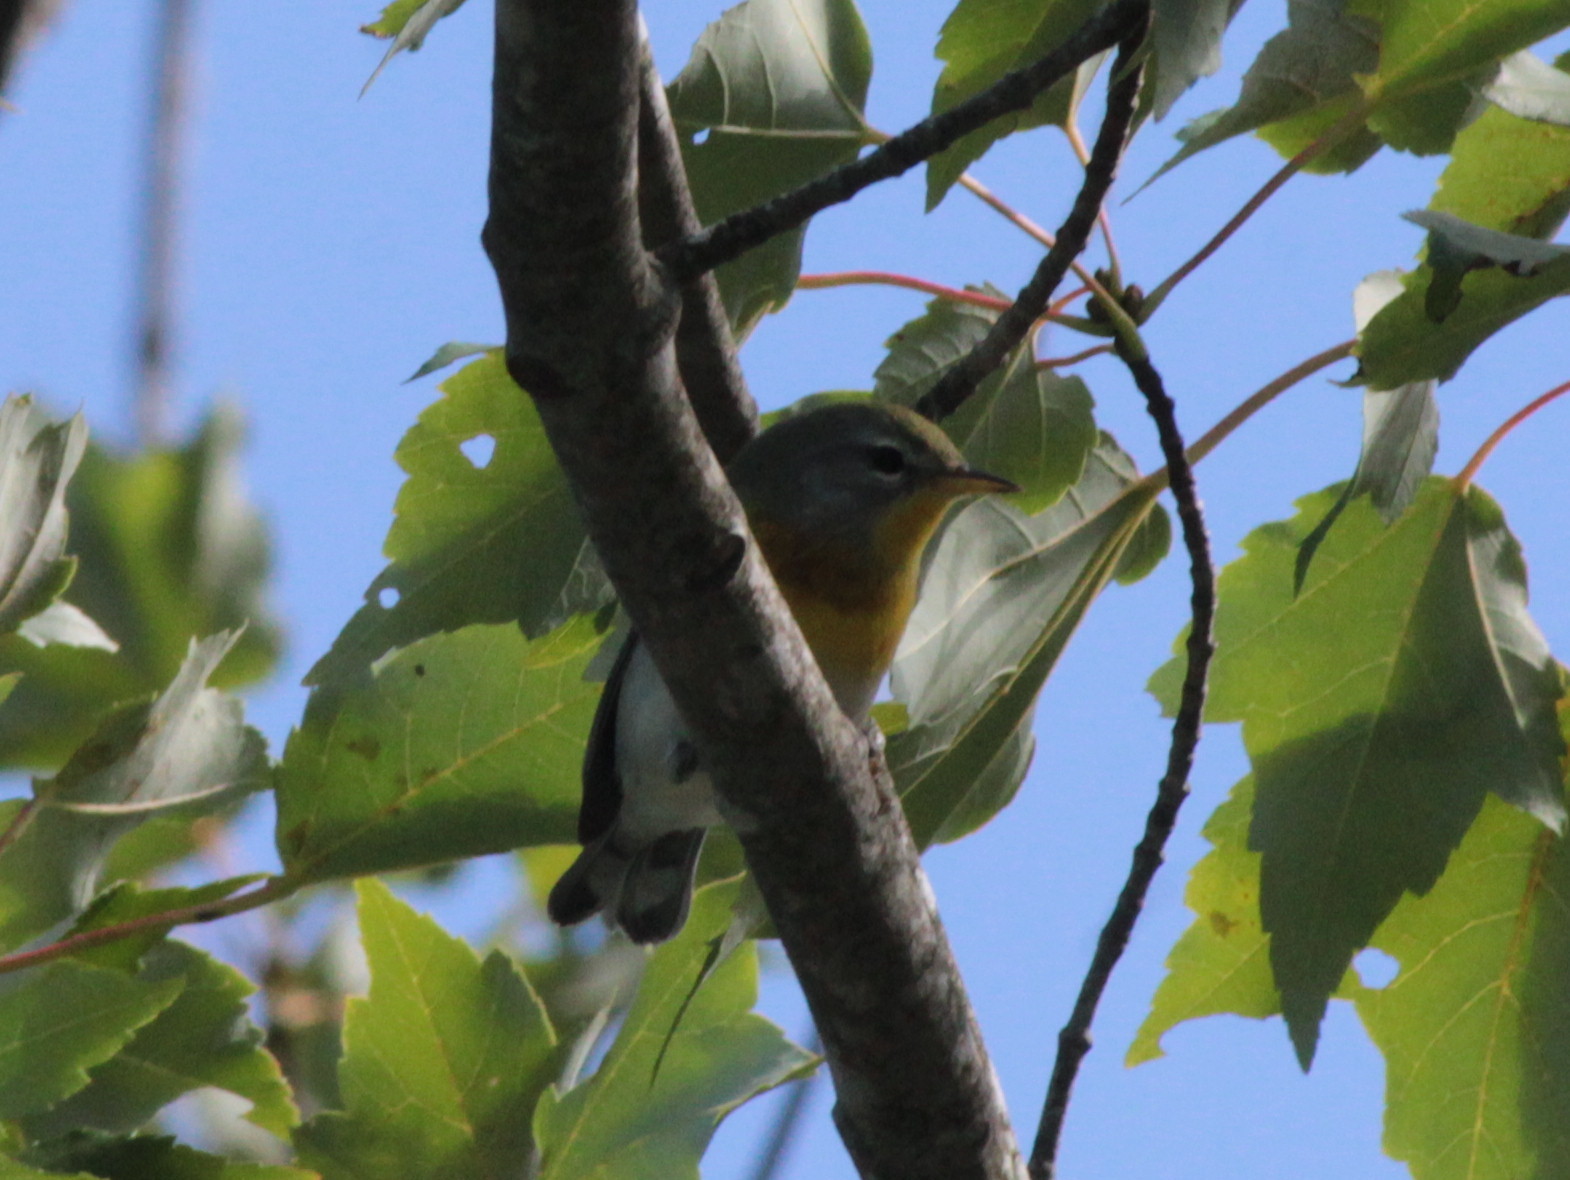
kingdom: Animalia
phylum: Chordata
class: Aves
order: Passeriformes
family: Parulidae
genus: Mniotilta
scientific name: Mniotilta varia
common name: Black-and-white warbler
